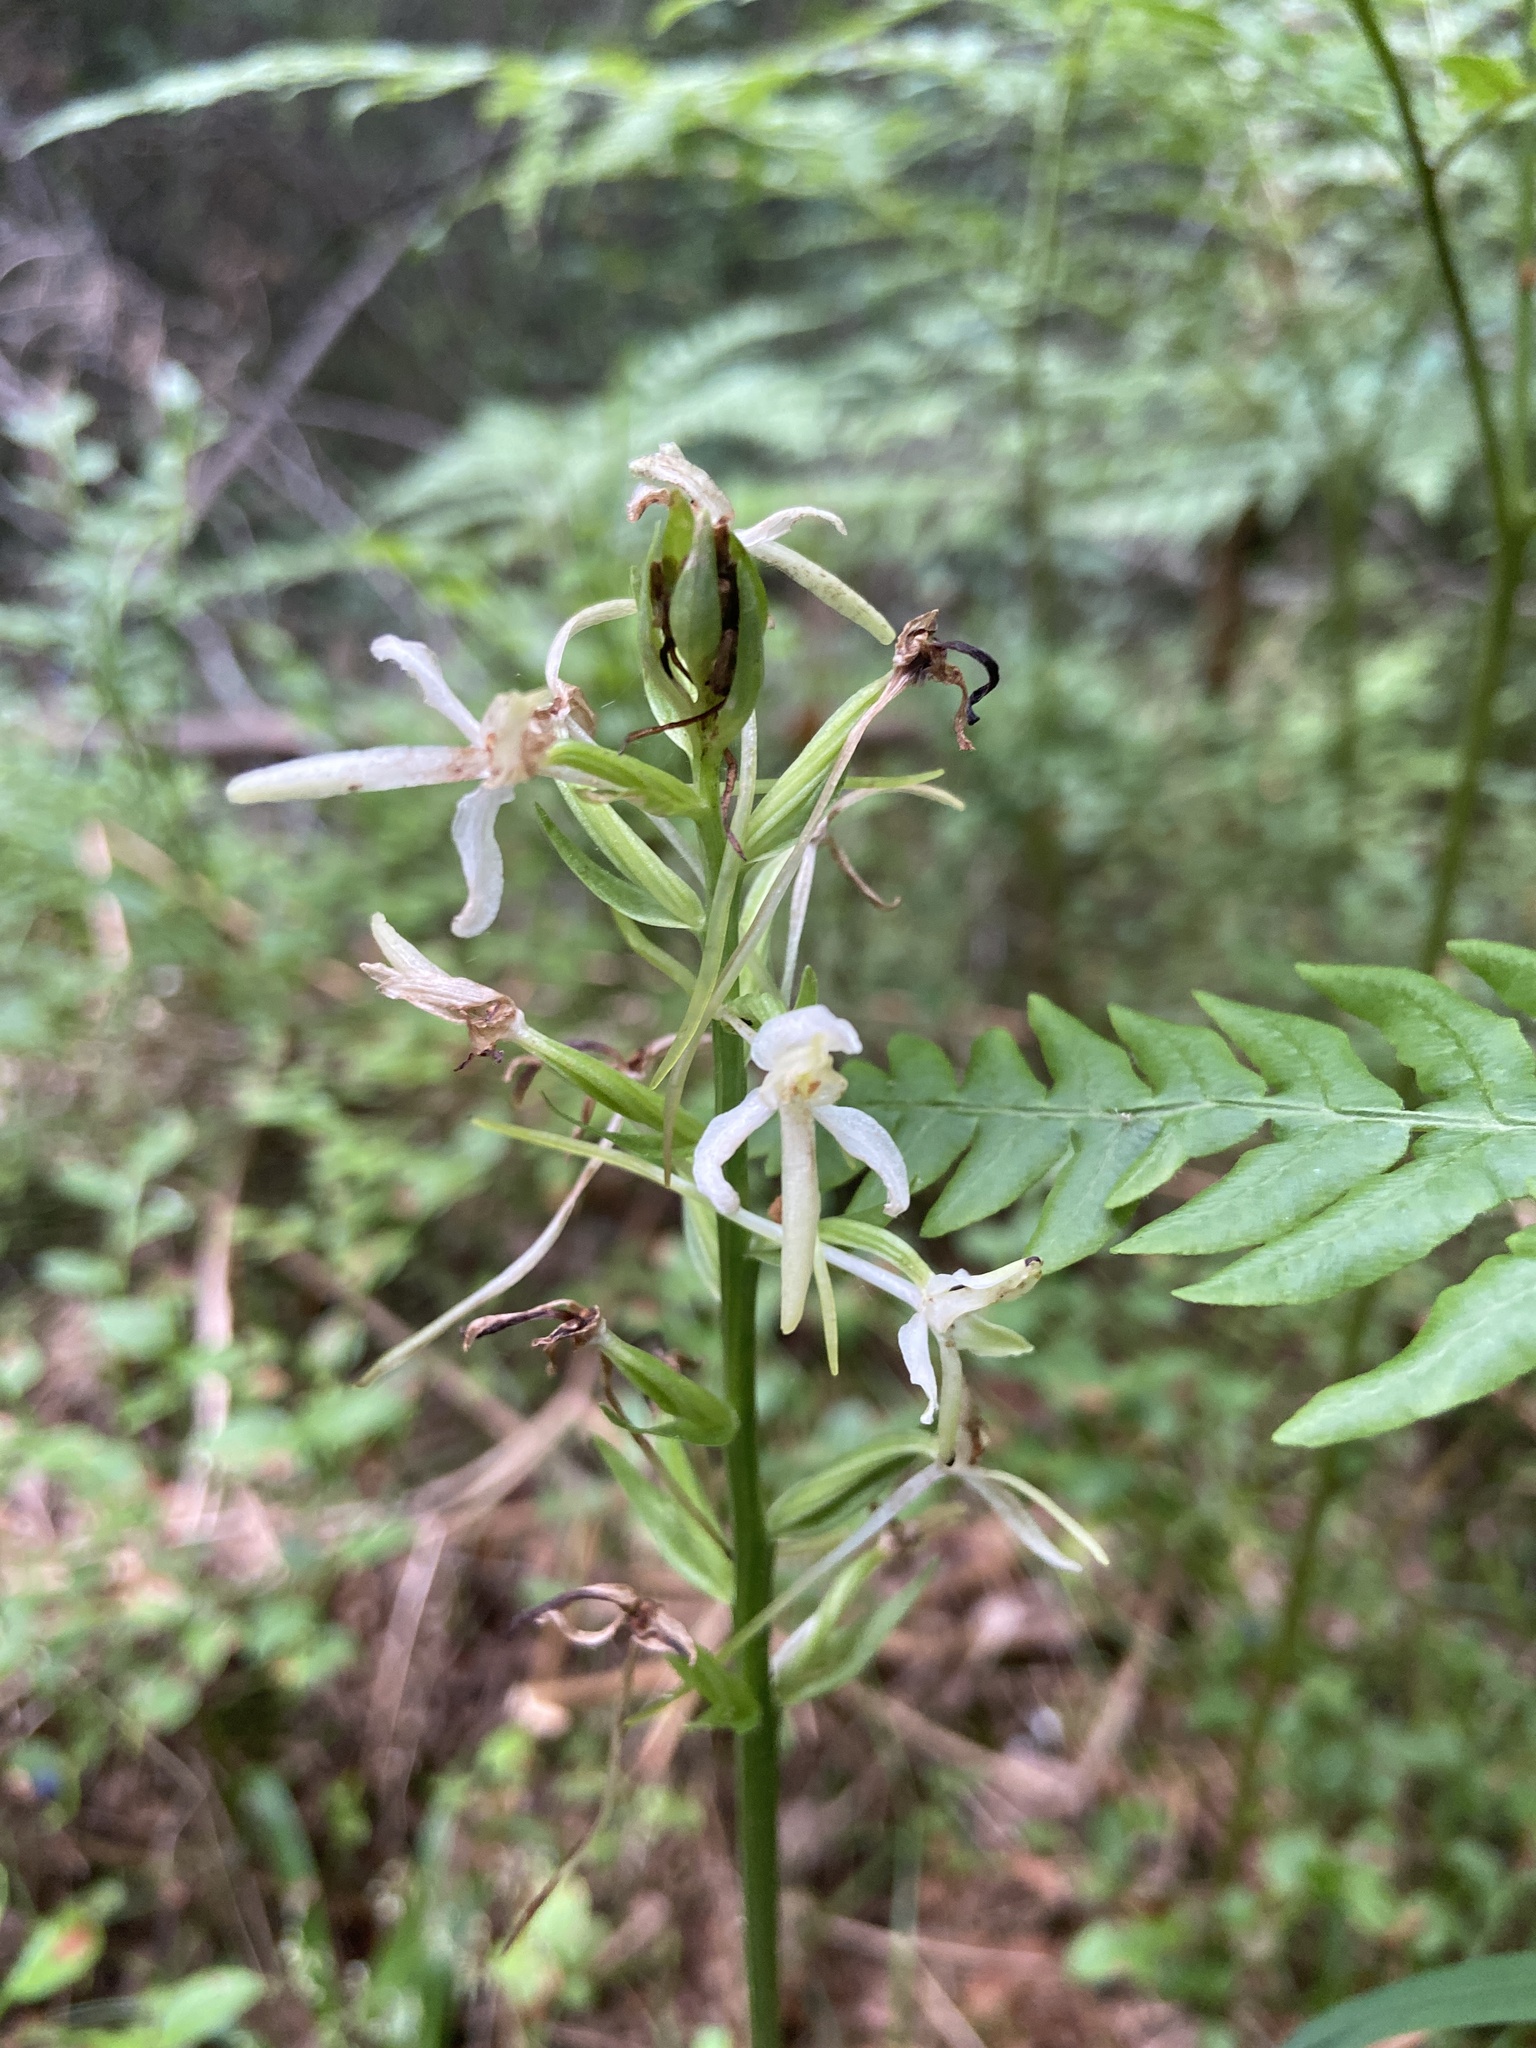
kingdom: Plantae
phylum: Tracheophyta
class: Liliopsida
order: Asparagales
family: Orchidaceae
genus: Platanthera
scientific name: Platanthera bifolia
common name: Lesser butterfly-orchid
